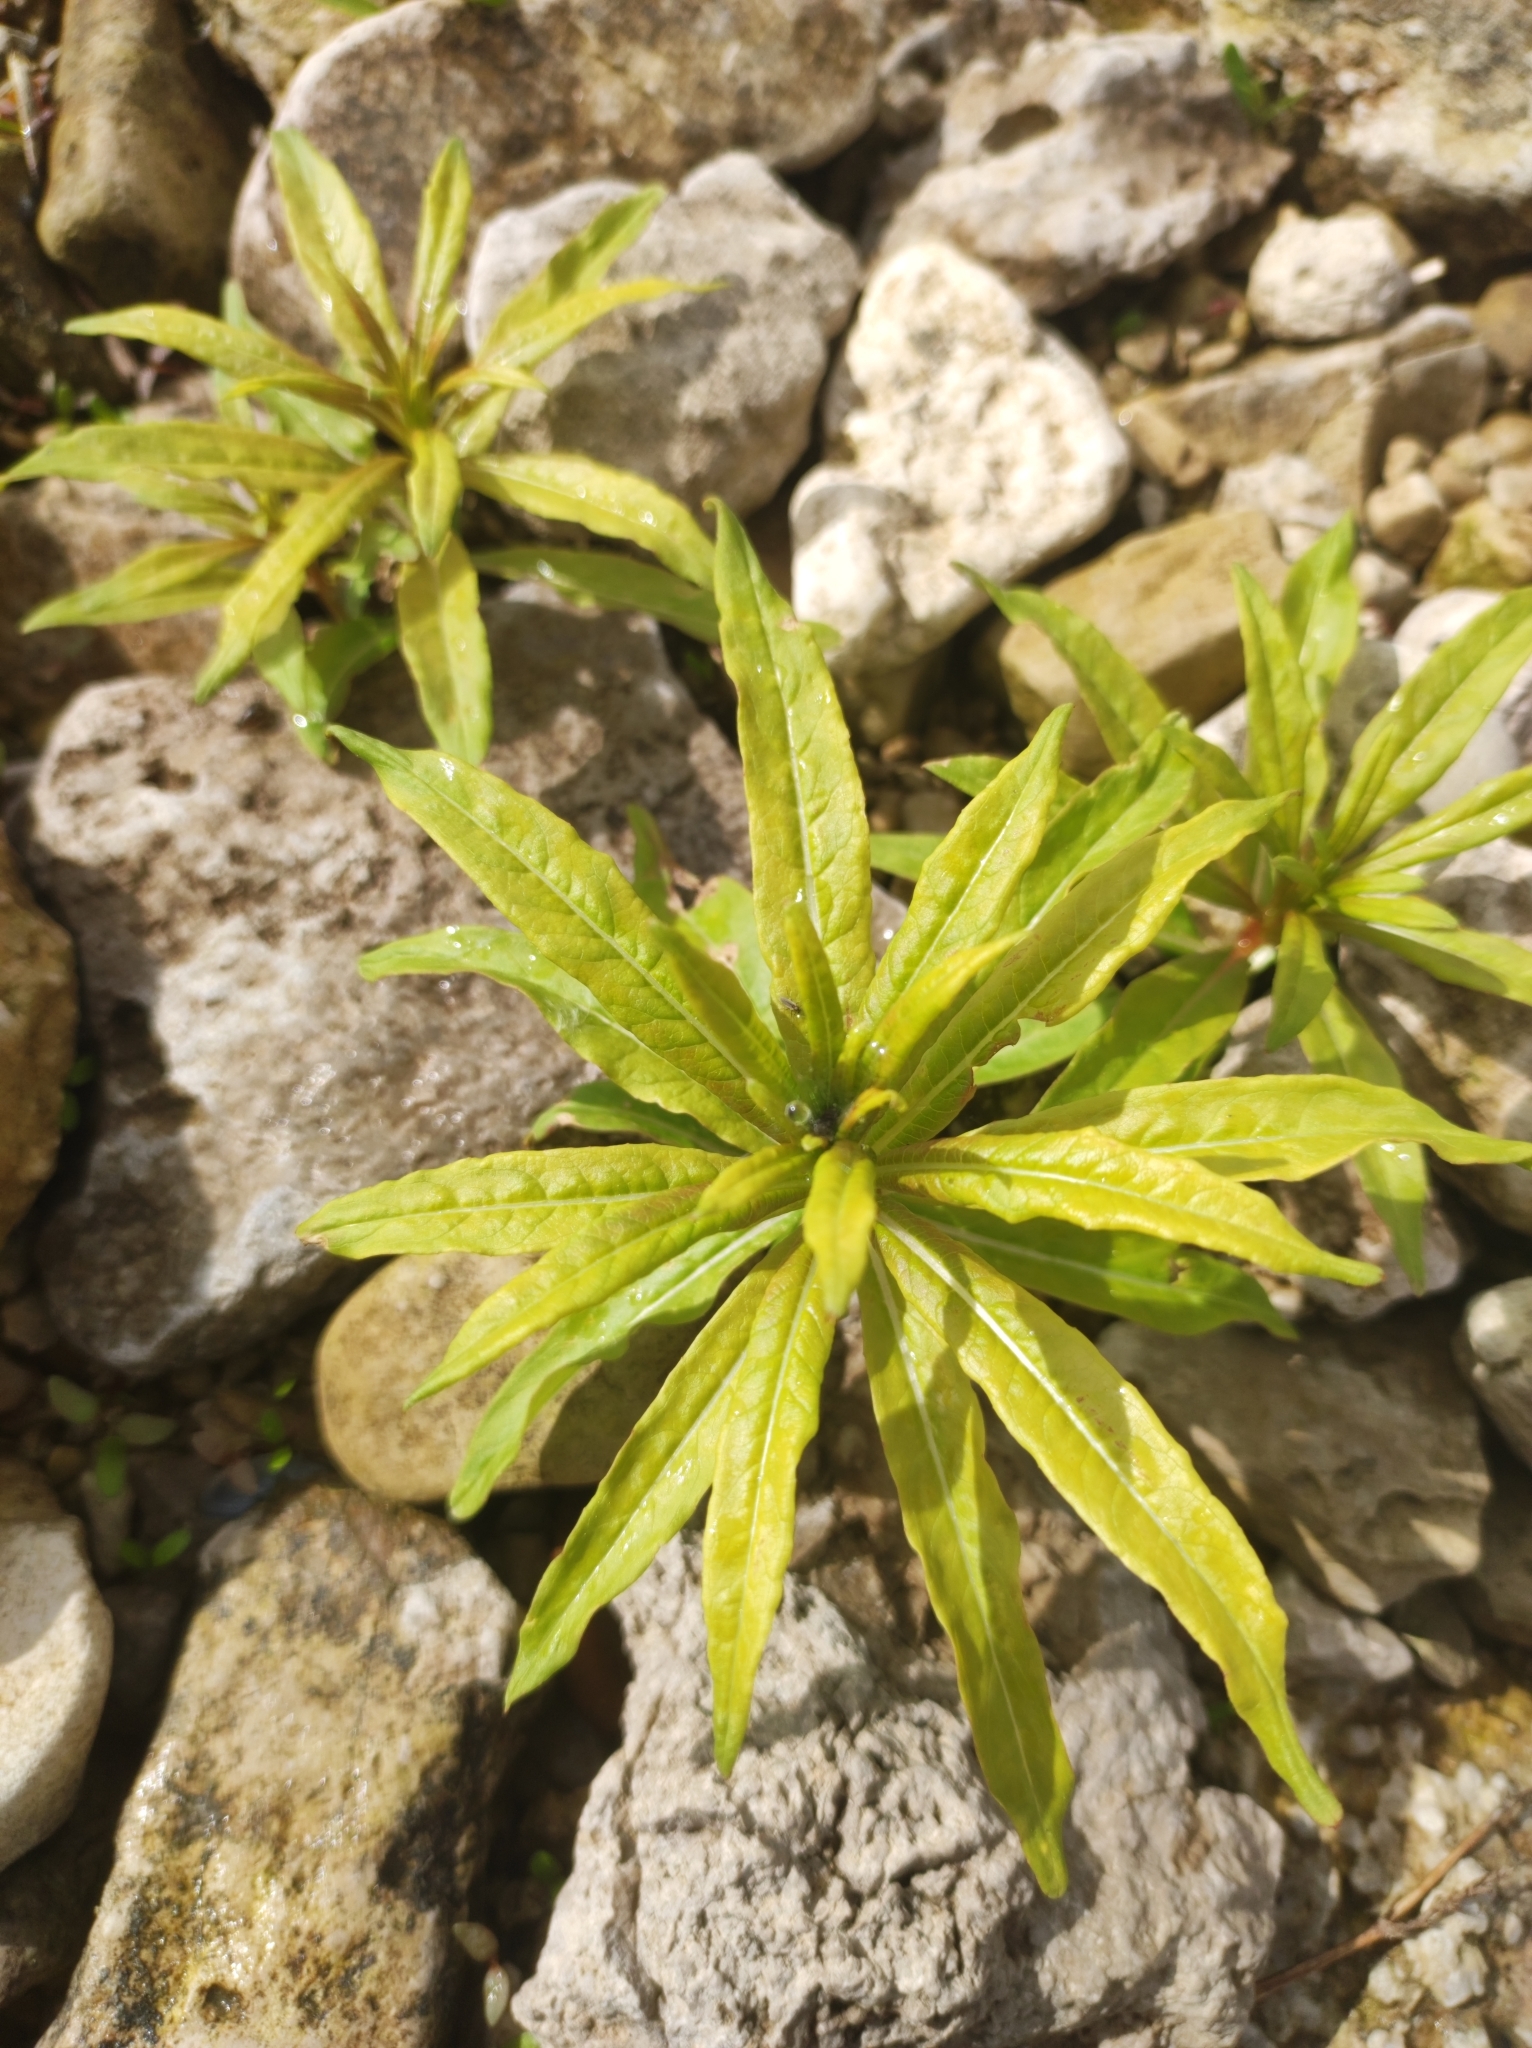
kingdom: Plantae
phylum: Tracheophyta
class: Magnoliopsida
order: Myrtales
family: Onagraceae
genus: Chamaenerion
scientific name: Chamaenerion angustifolium
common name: Fireweed
